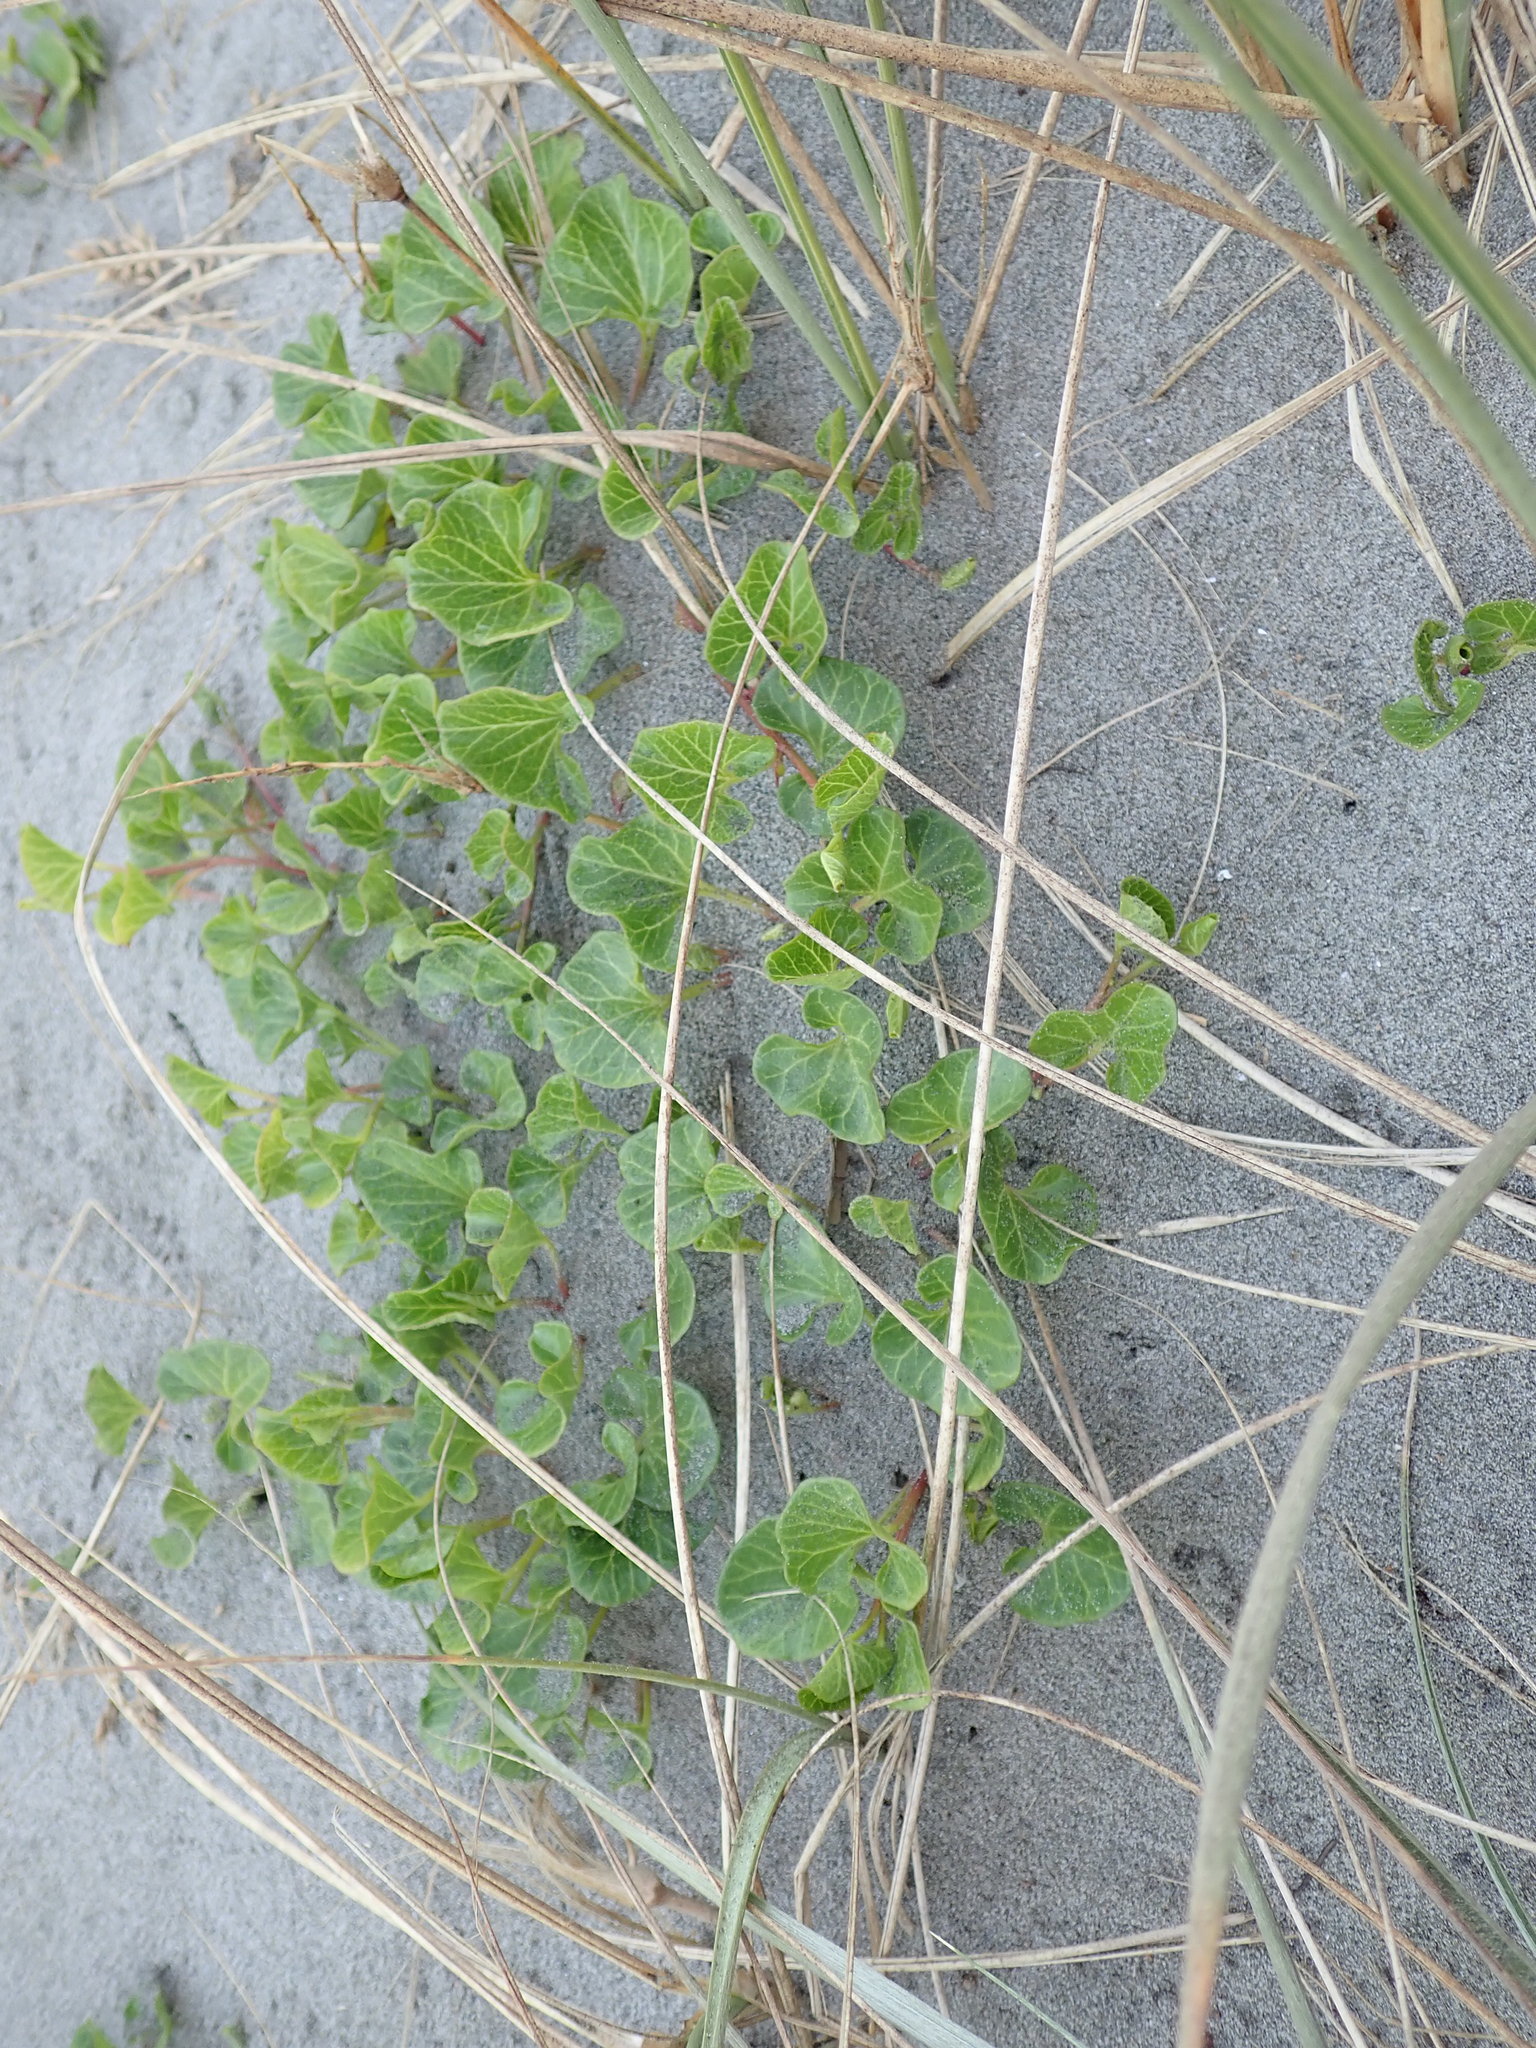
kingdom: Plantae
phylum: Tracheophyta
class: Magnoliopsida
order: Solanales
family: Convolvulaceae
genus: Calystegia
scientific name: Calystegia soldanella
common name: Sea bindweed
